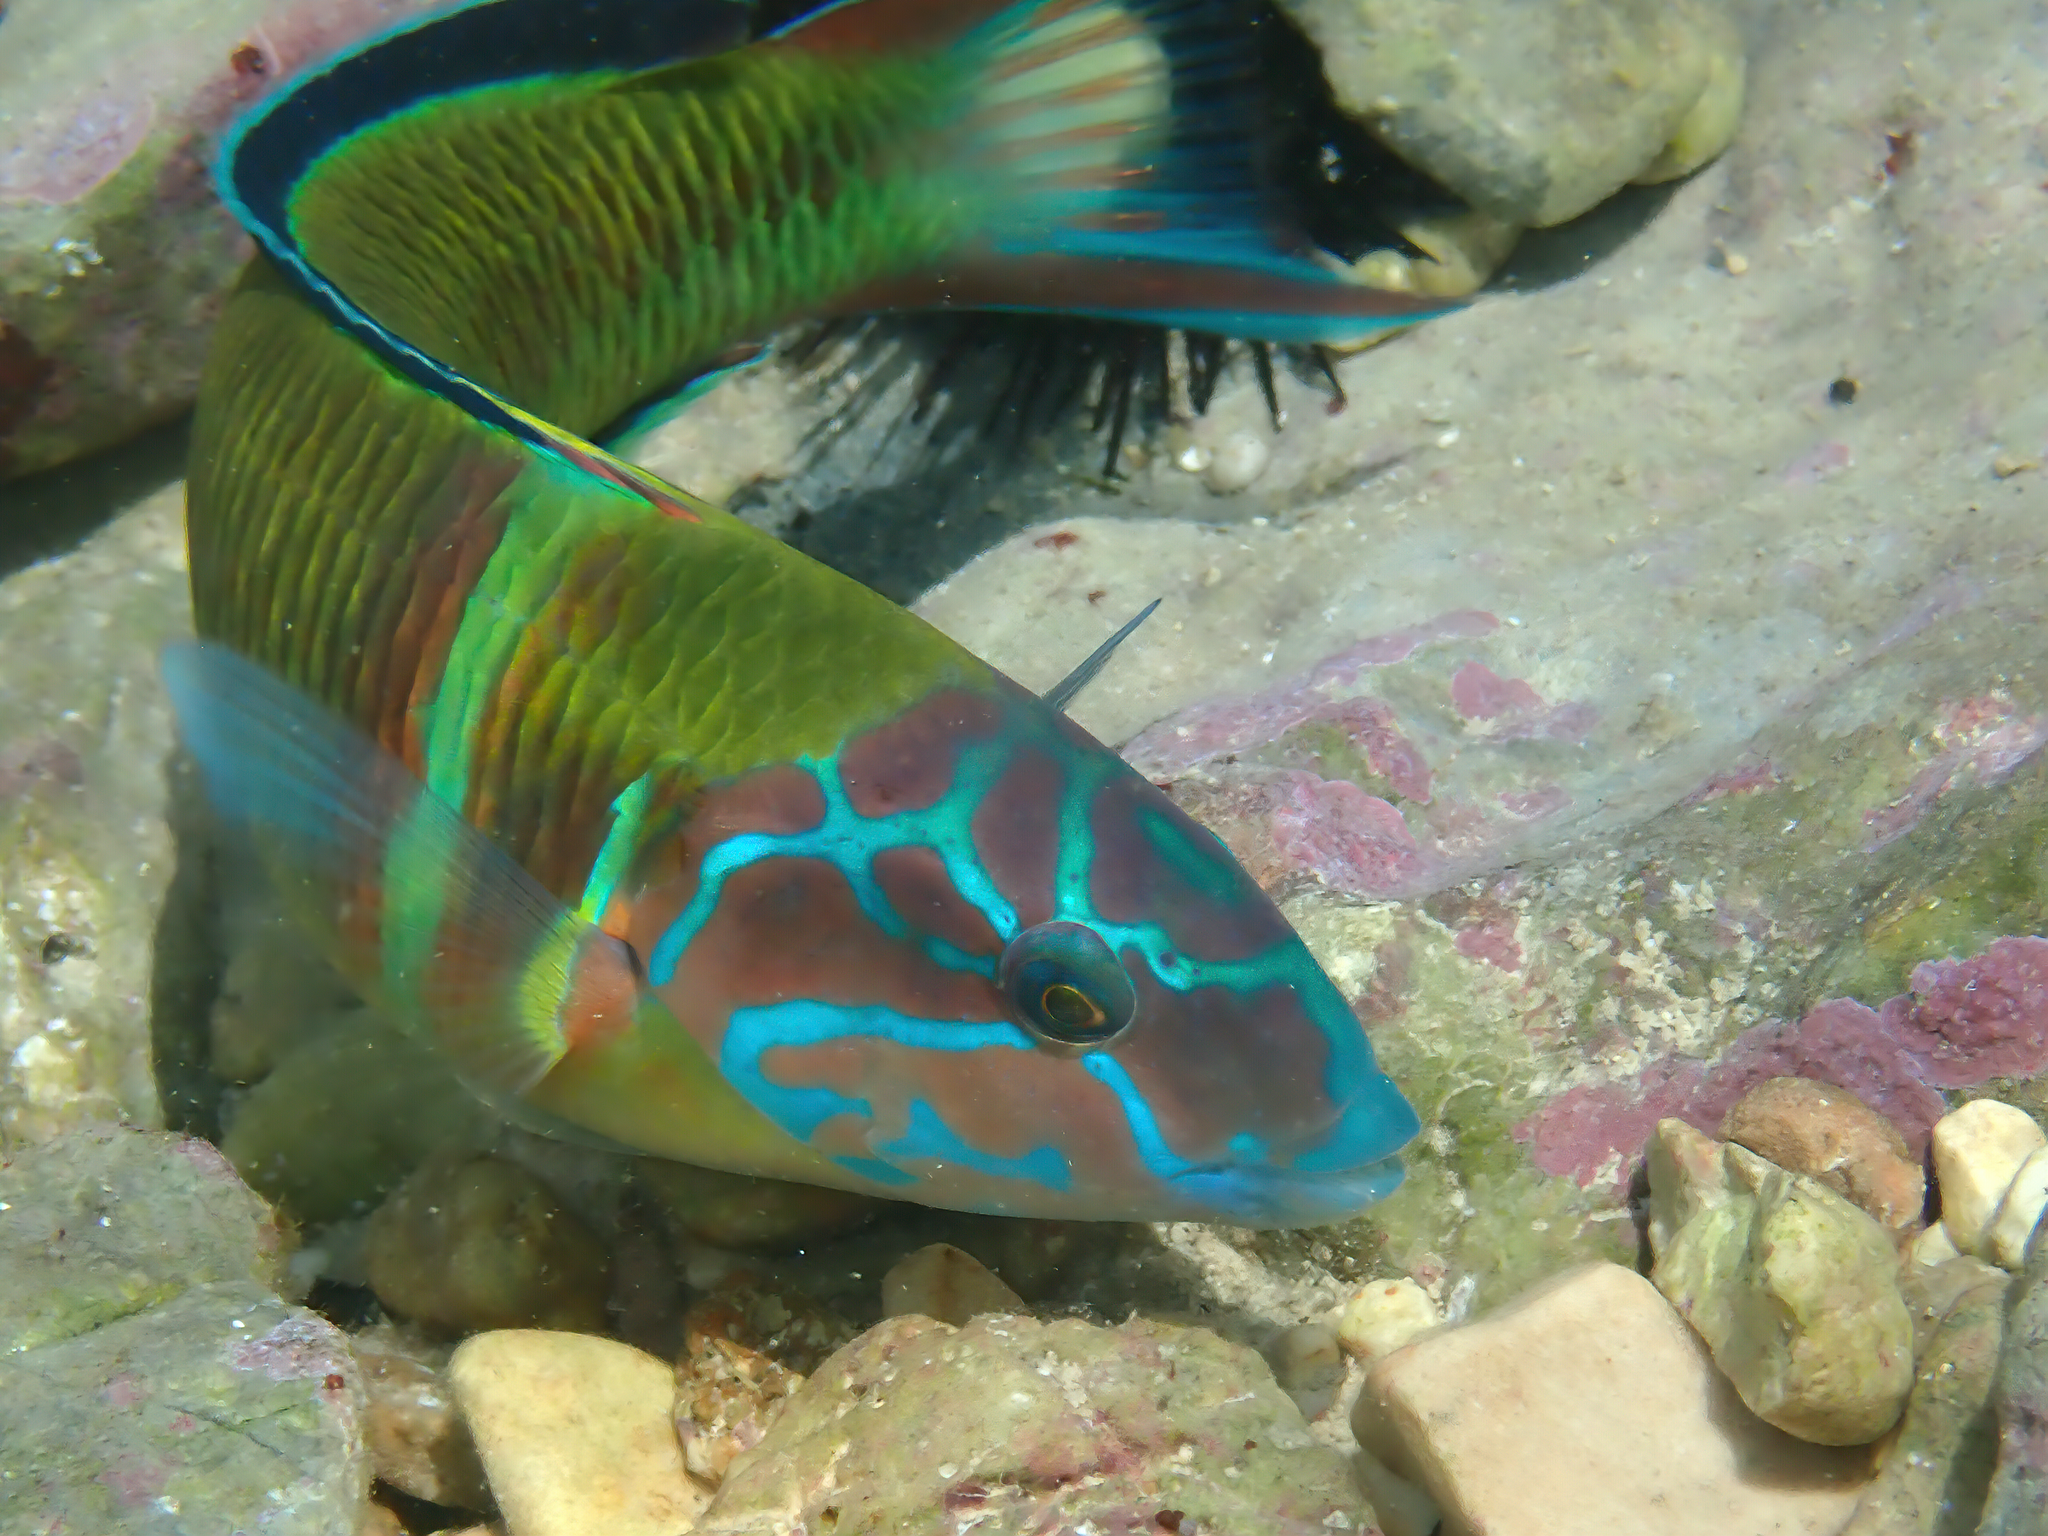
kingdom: Animalia
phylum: Chordata
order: Perciformes
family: Labridae
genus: Thalassoma
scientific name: Thalassoma pavo
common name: Ornate wrasse
